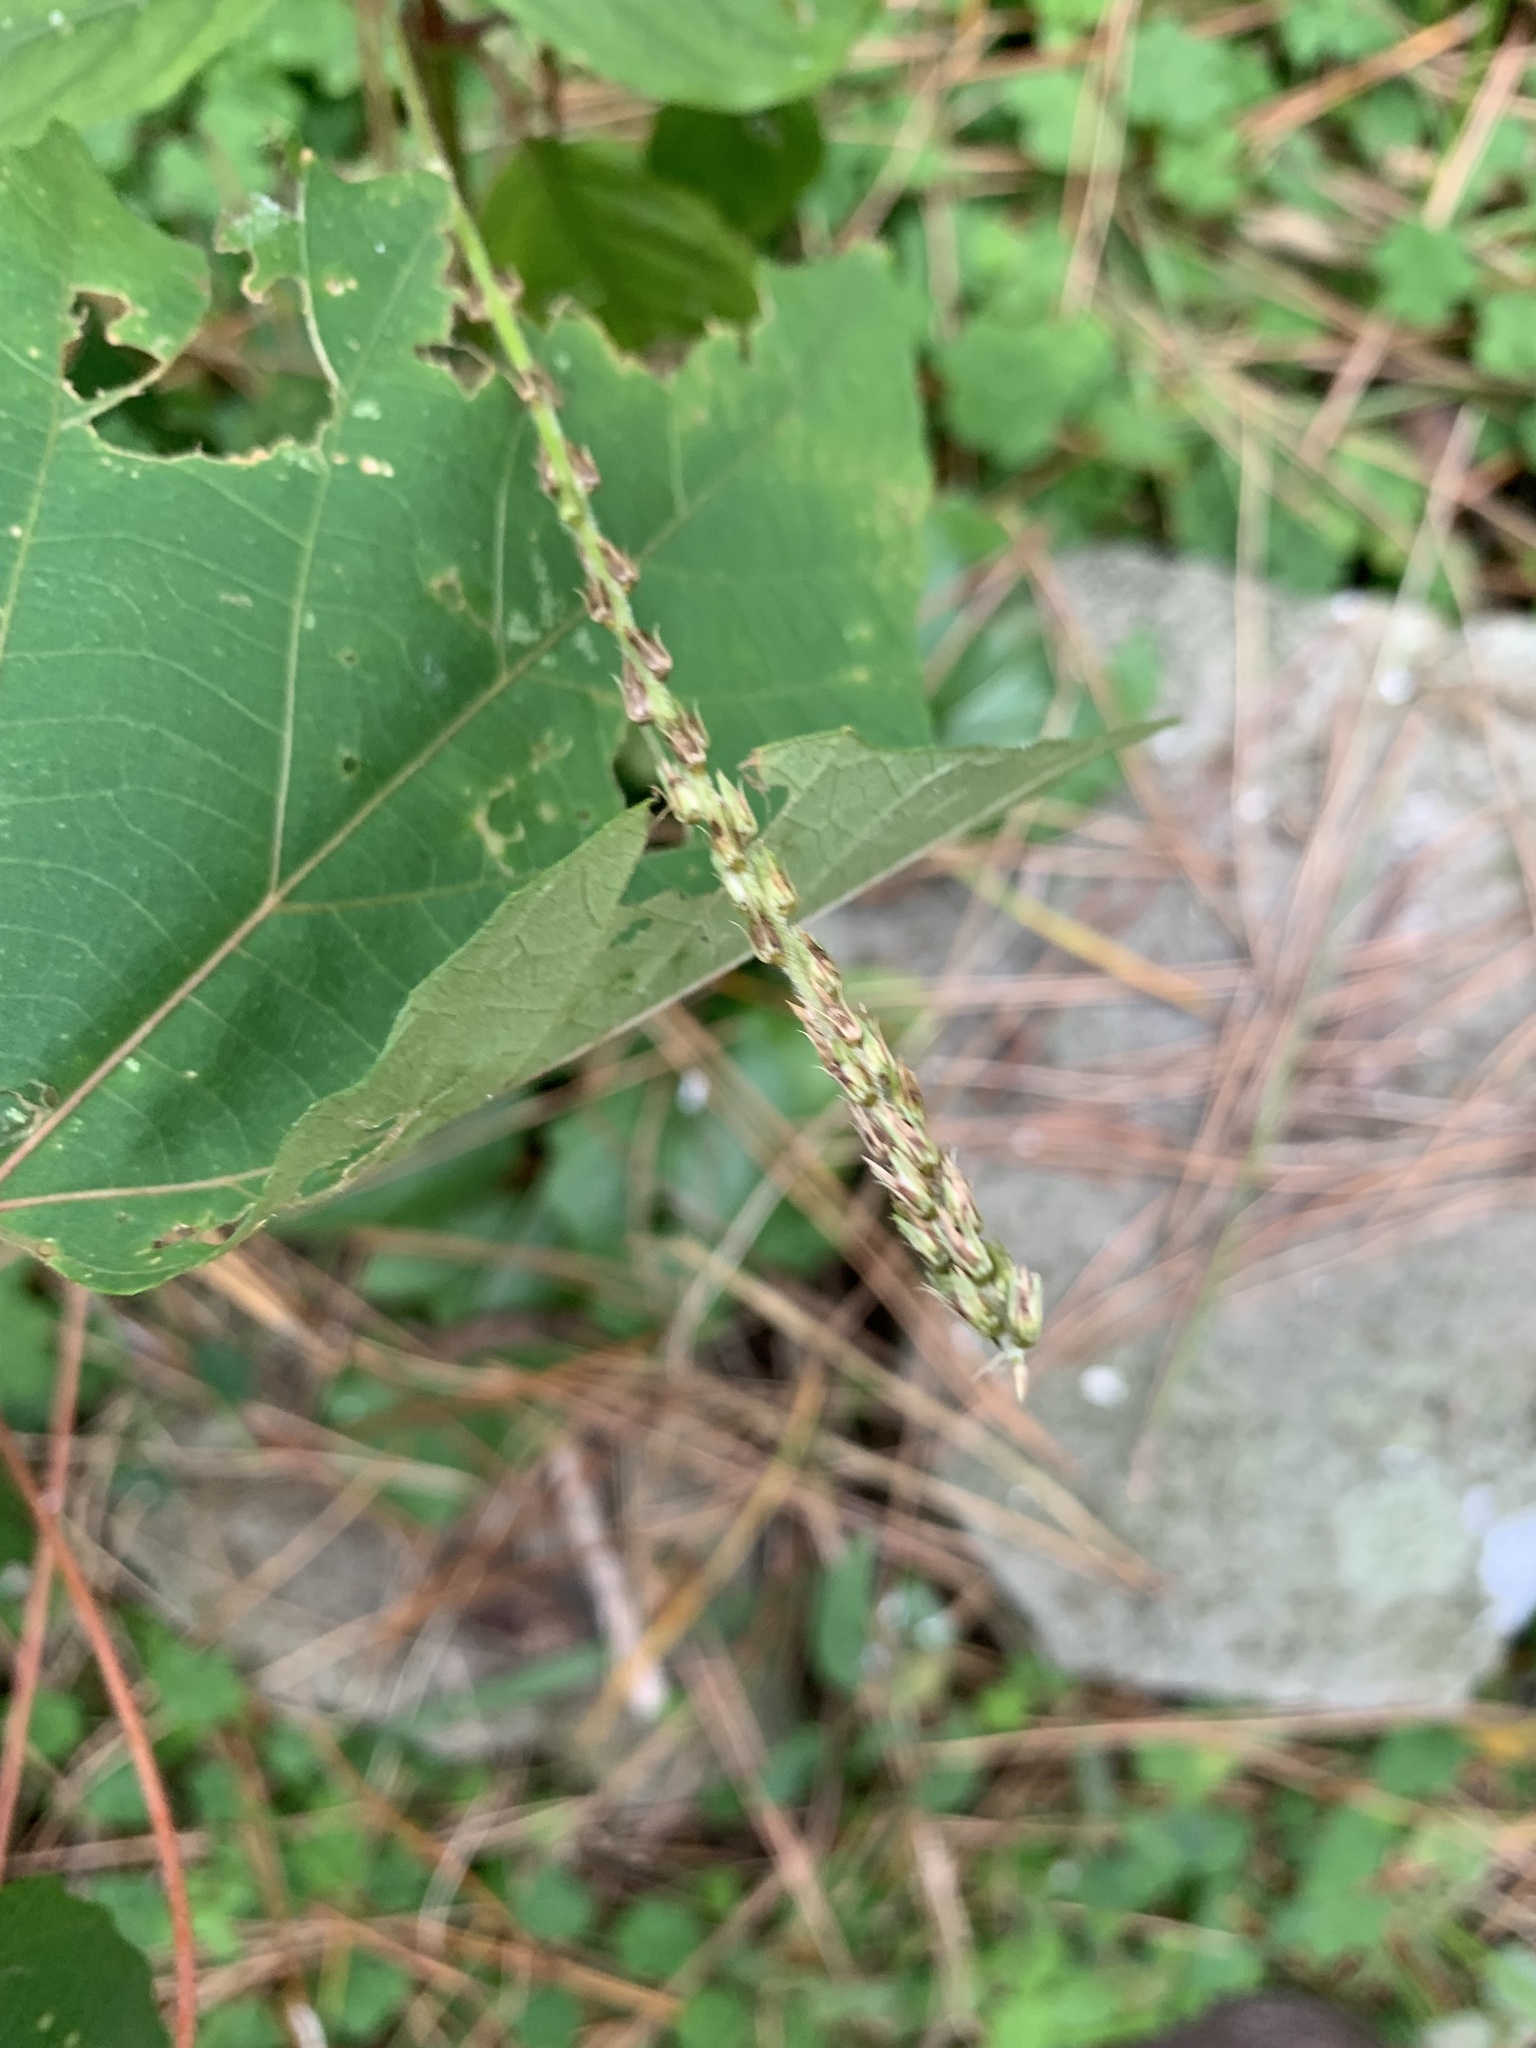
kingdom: Plantae
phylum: Tracheophyta
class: Magnoliopsida
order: Caryophyllales
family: Amaranthaceae
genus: Achyranthes
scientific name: Achyranthes bidentata
